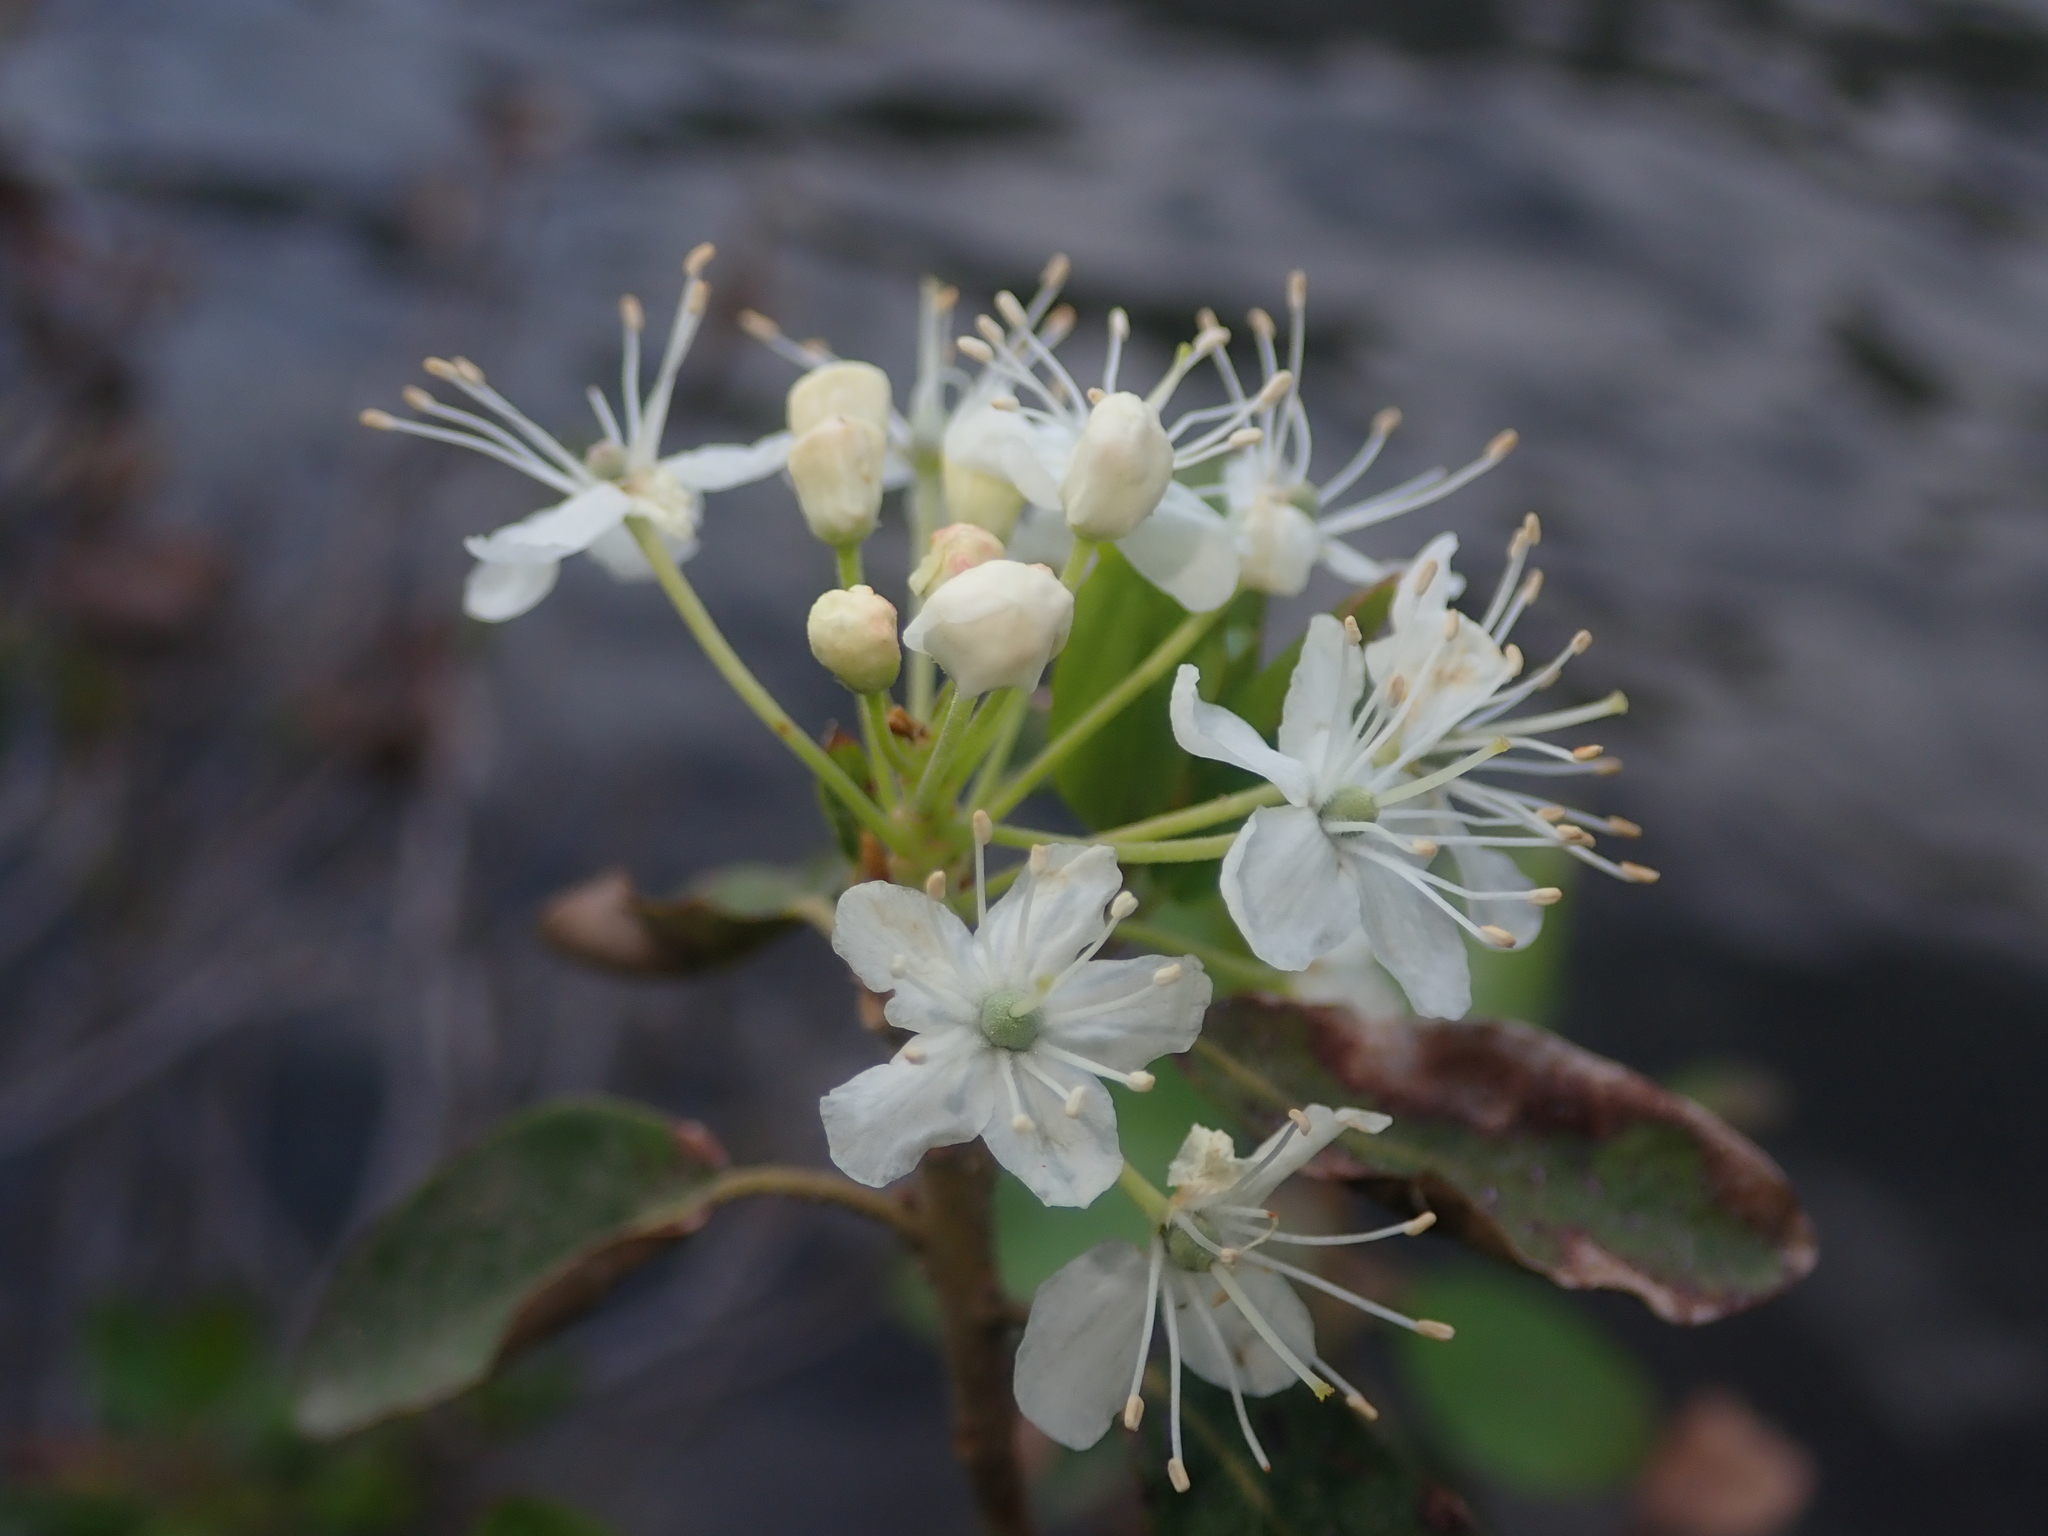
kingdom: Plantae
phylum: Tracheophyta
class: Magnoliopsida
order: Ericales
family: Ericaceae
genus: Rhododendron
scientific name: Rhododendron columbianum
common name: Western labrador tea
